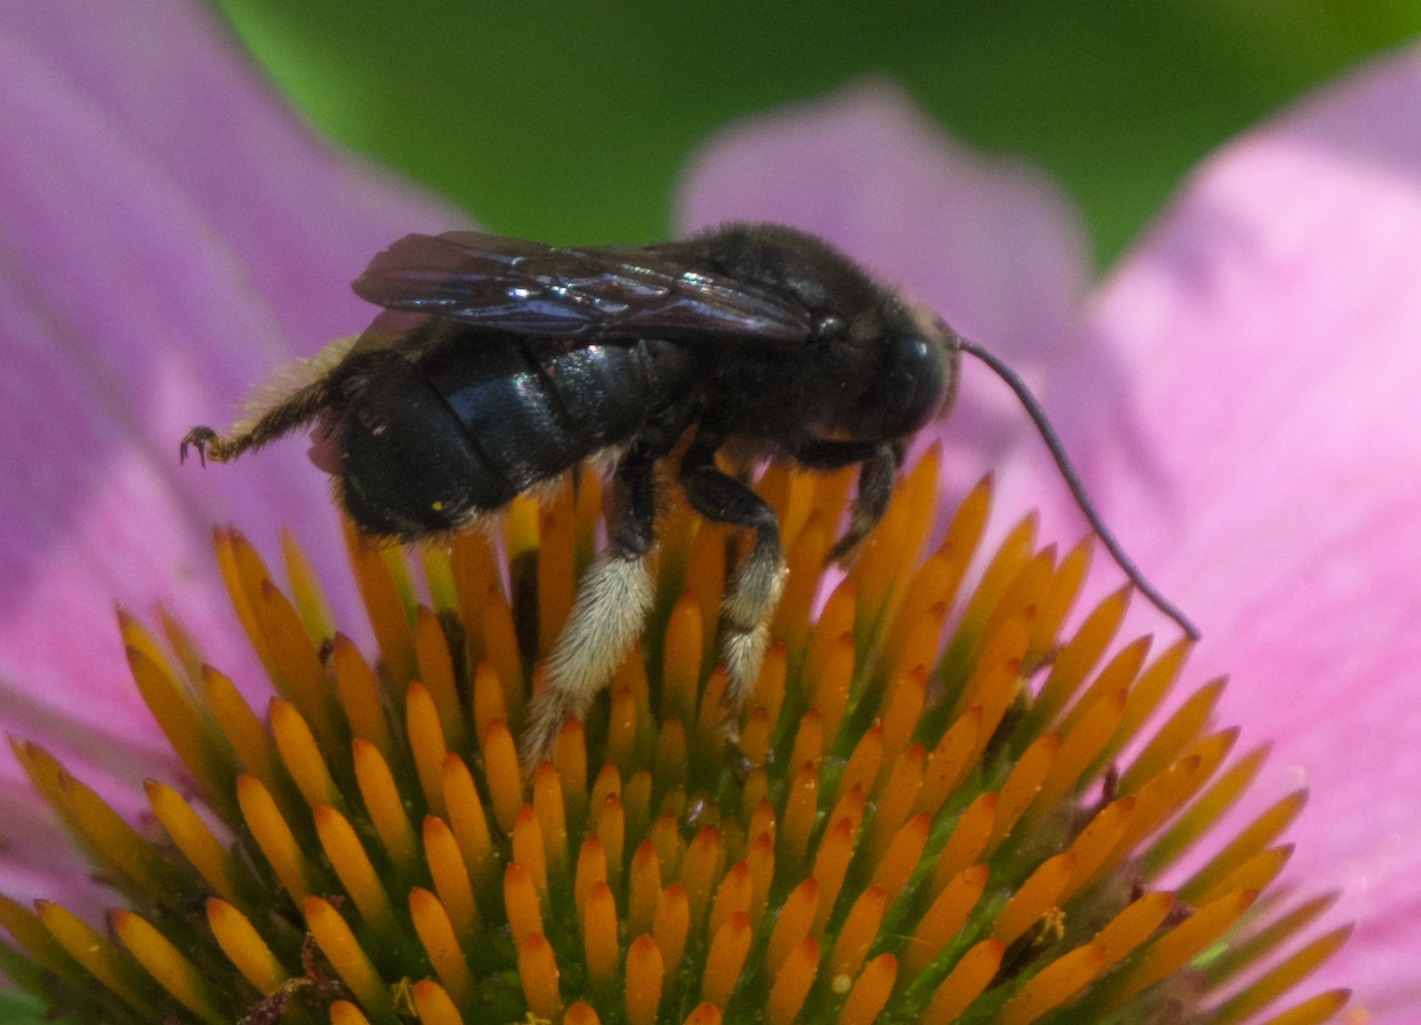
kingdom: Animalia
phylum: Arthropoda
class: Insecta
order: Hymenoptera
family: Apidae
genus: Melissodes
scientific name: Melissodes bimaculatus
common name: Two-spotted long-horned bee
